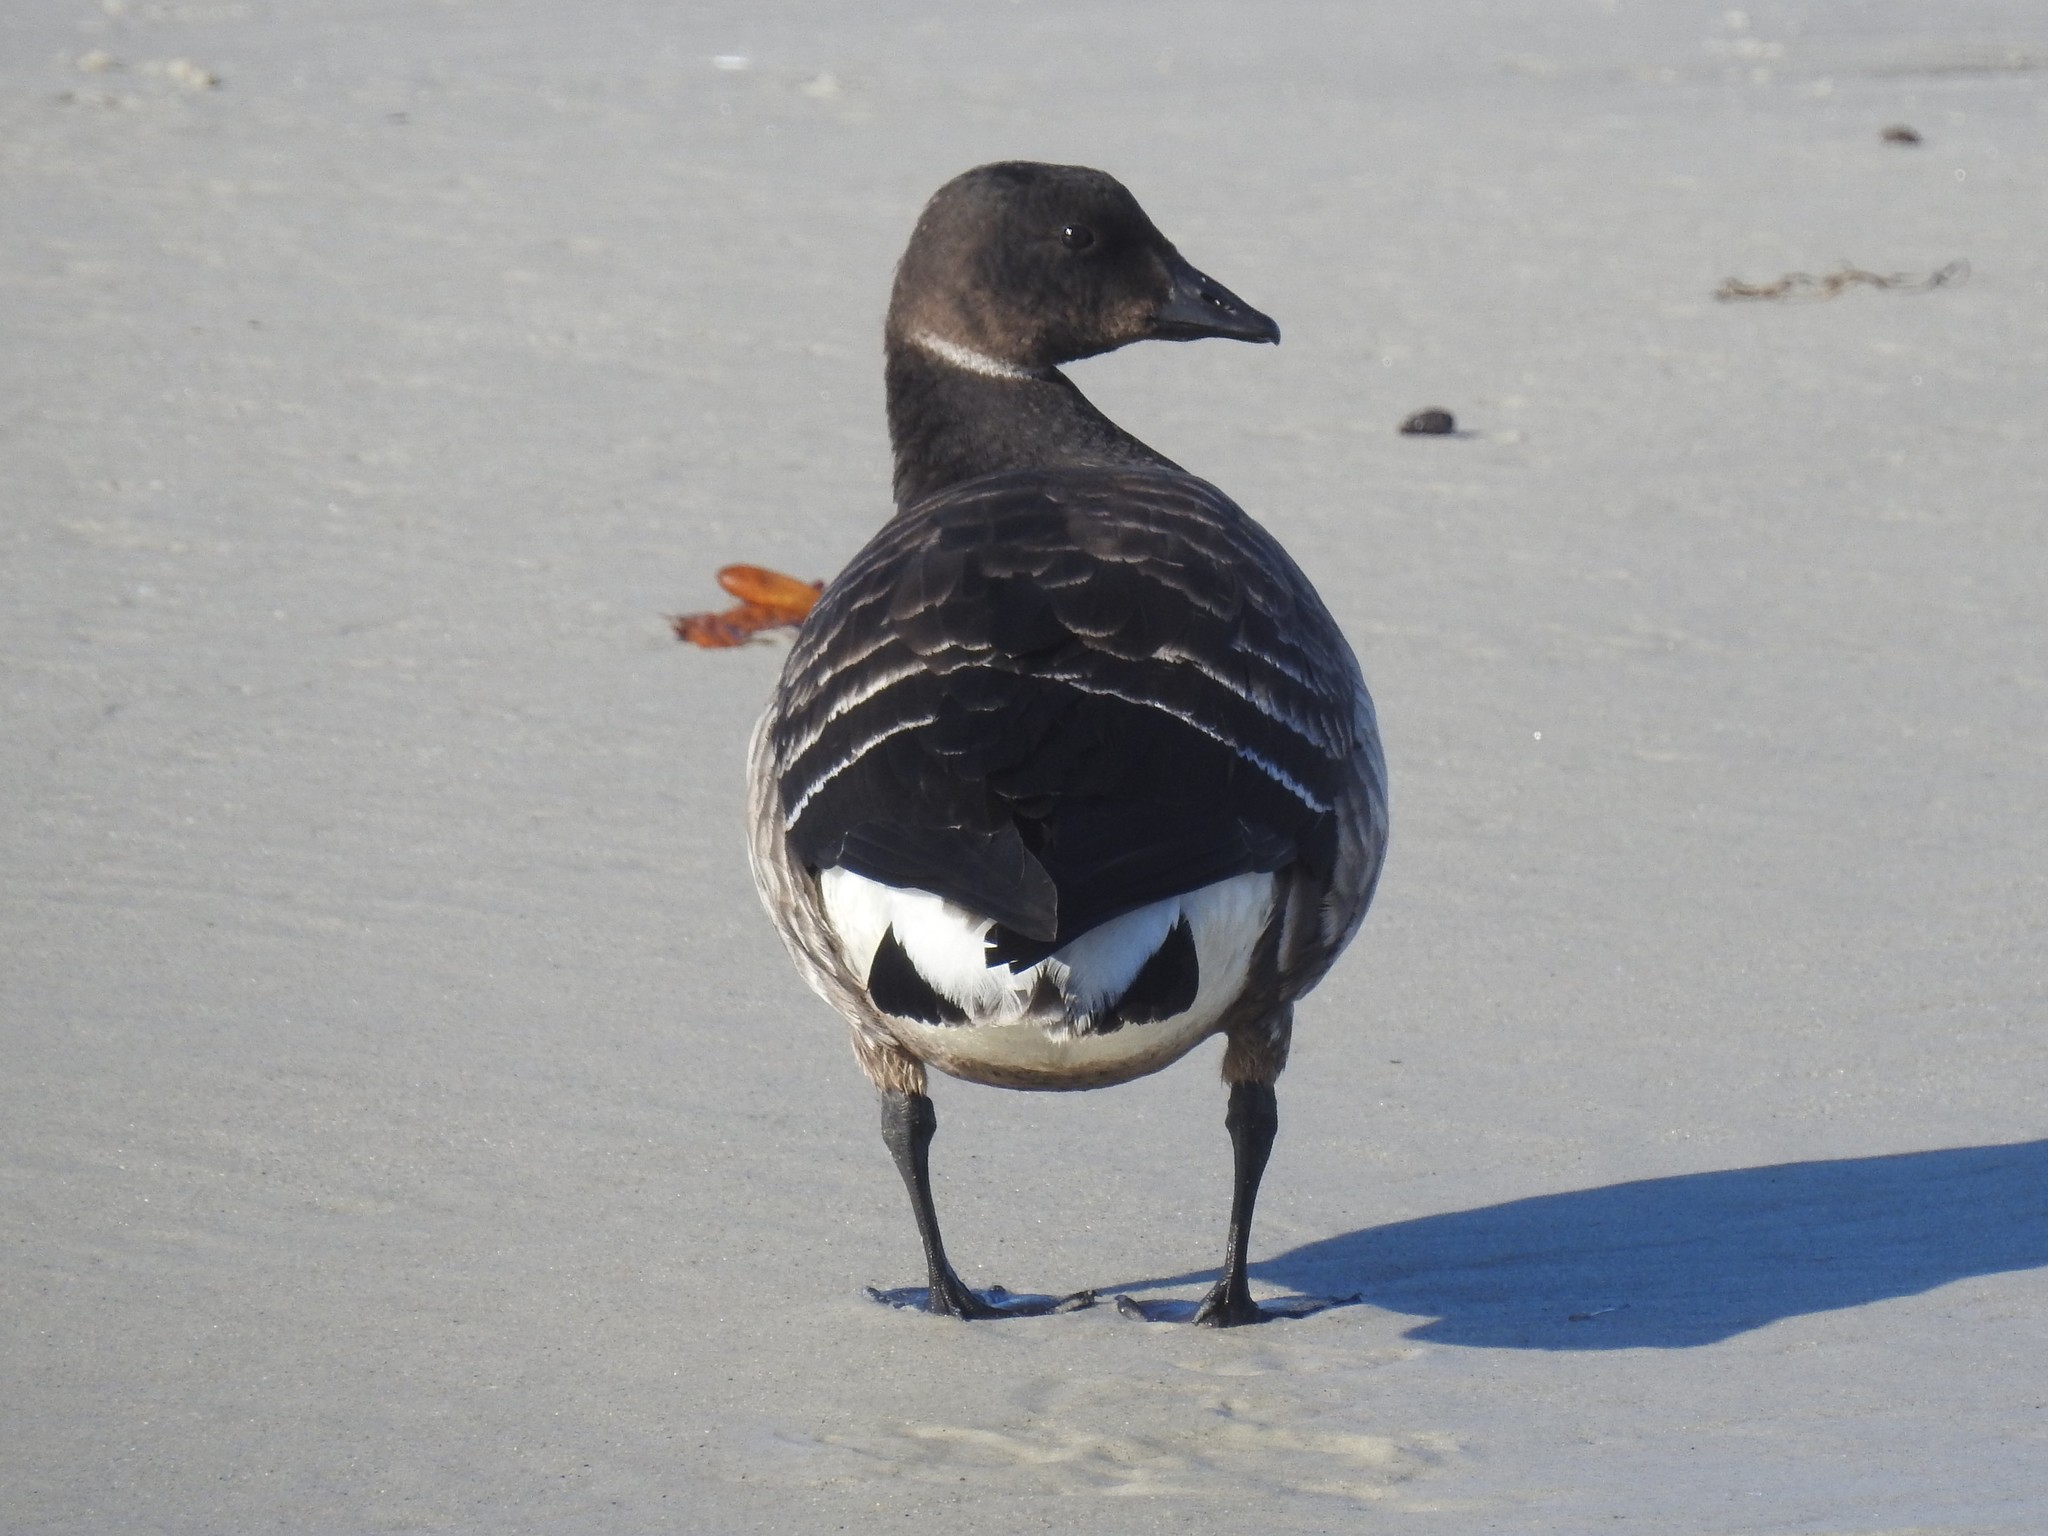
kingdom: Animalia
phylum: Chordata
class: Aves
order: Anseriformes
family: Anatidae
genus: Branta
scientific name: Branta bernicla
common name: Brant goose
